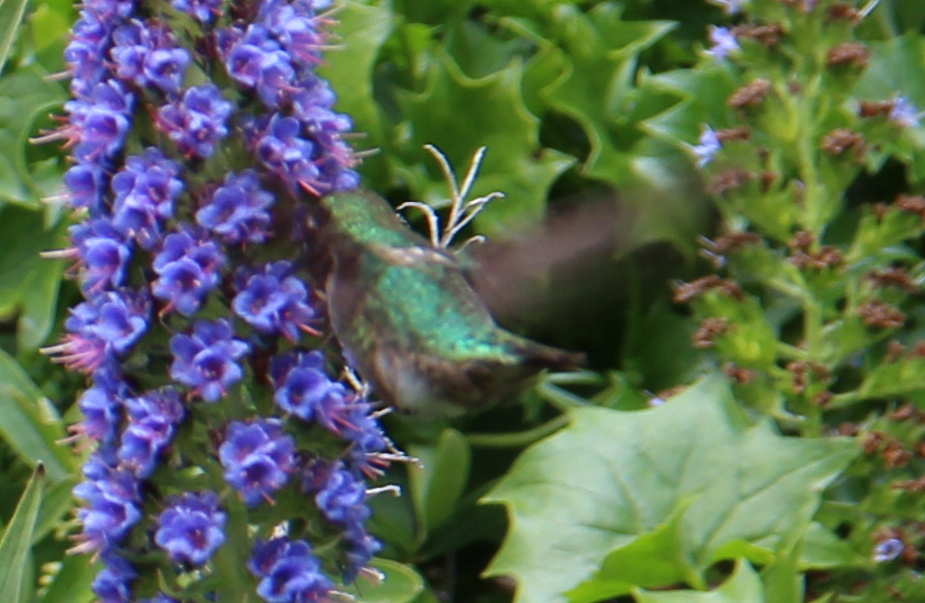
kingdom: Animalia
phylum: Chordata
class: Aves
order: Apodiformes
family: Trochilidae
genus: Calypte
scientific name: Calypte anna
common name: Anna's hummingbird
